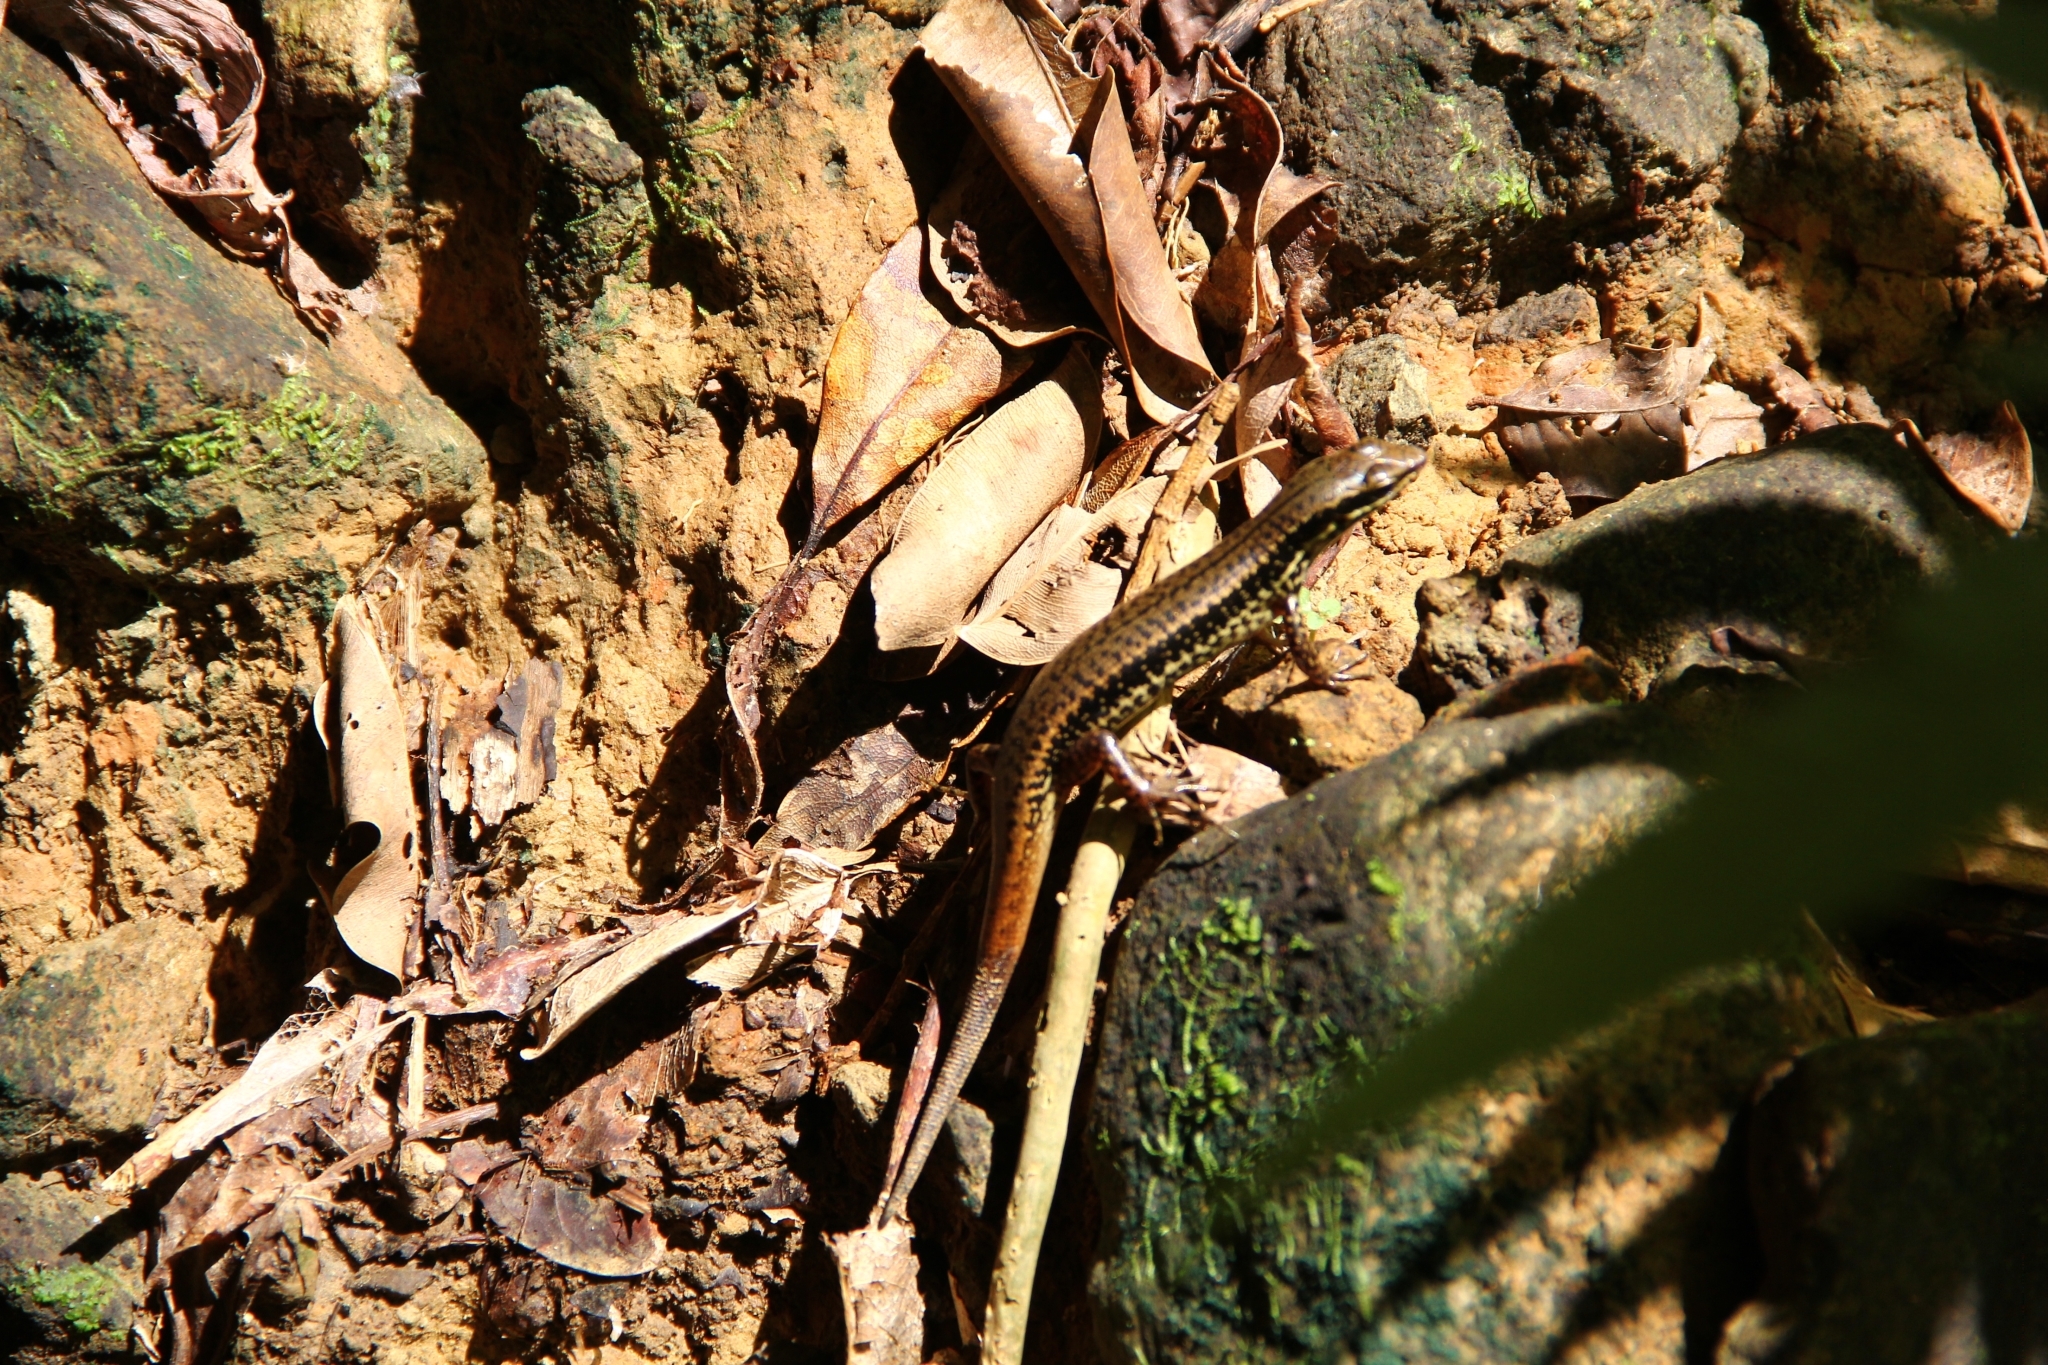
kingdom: Animalia
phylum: Chordata
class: Squamata
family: Scincidae
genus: Sphenomorphus
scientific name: Sphenomorphus incognitus
